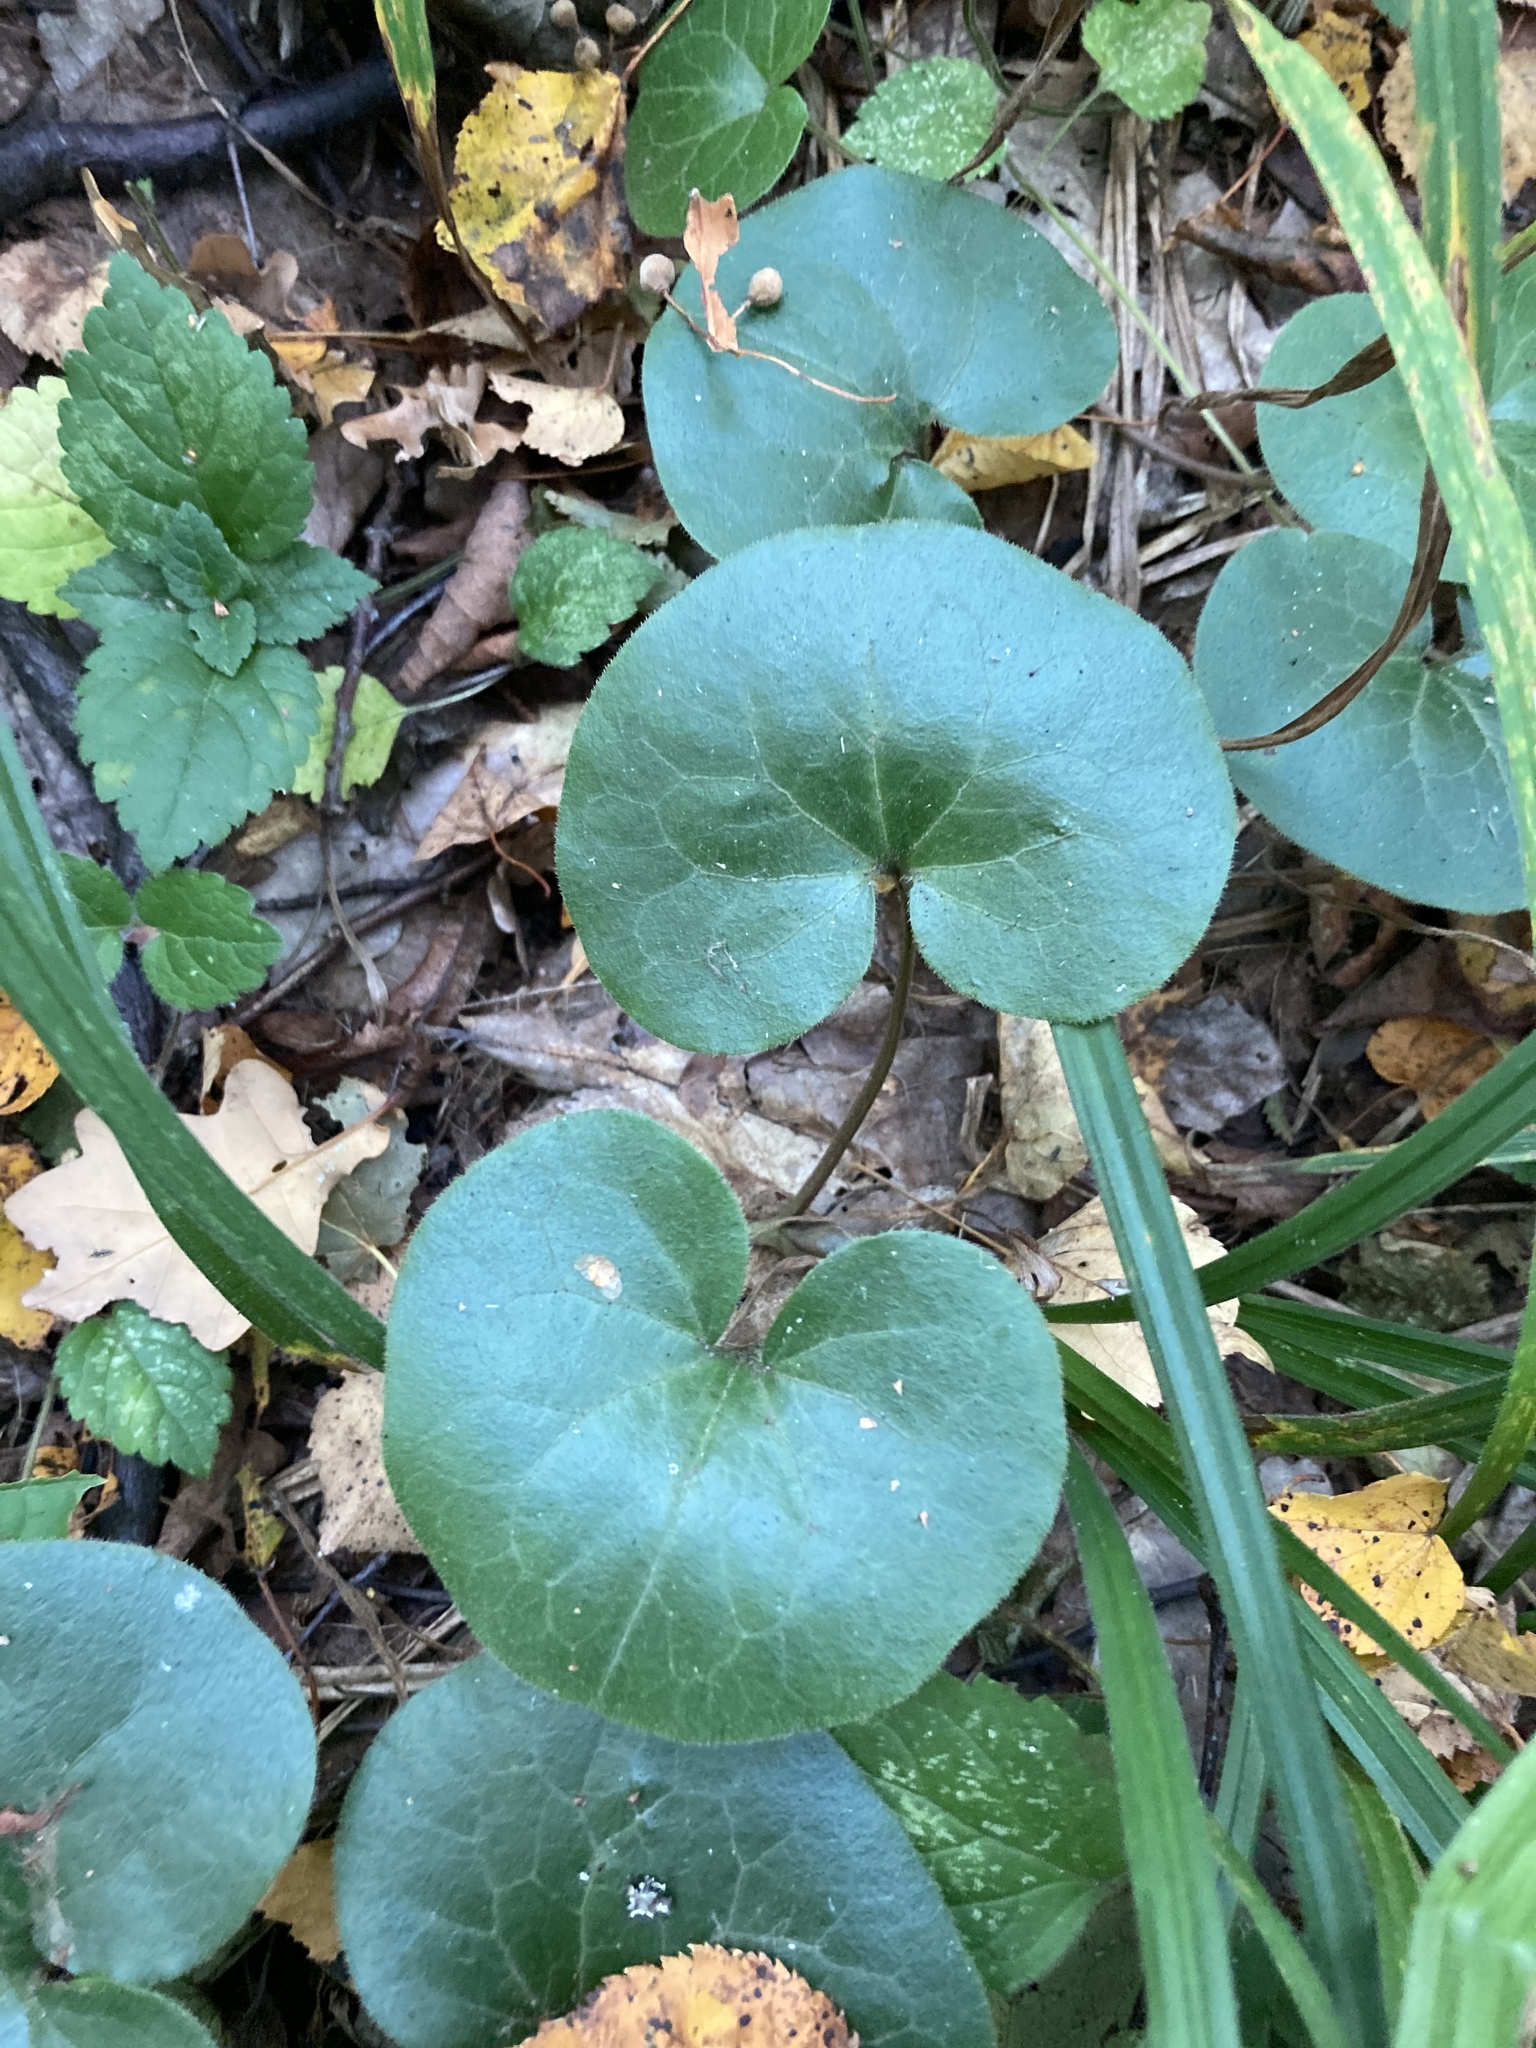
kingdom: Plantae
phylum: Tracheophyta
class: Magnoliopsida
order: Piperales
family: Aristolochiaceae
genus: Asarum
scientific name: Asarum europaeum
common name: Asarabacca
